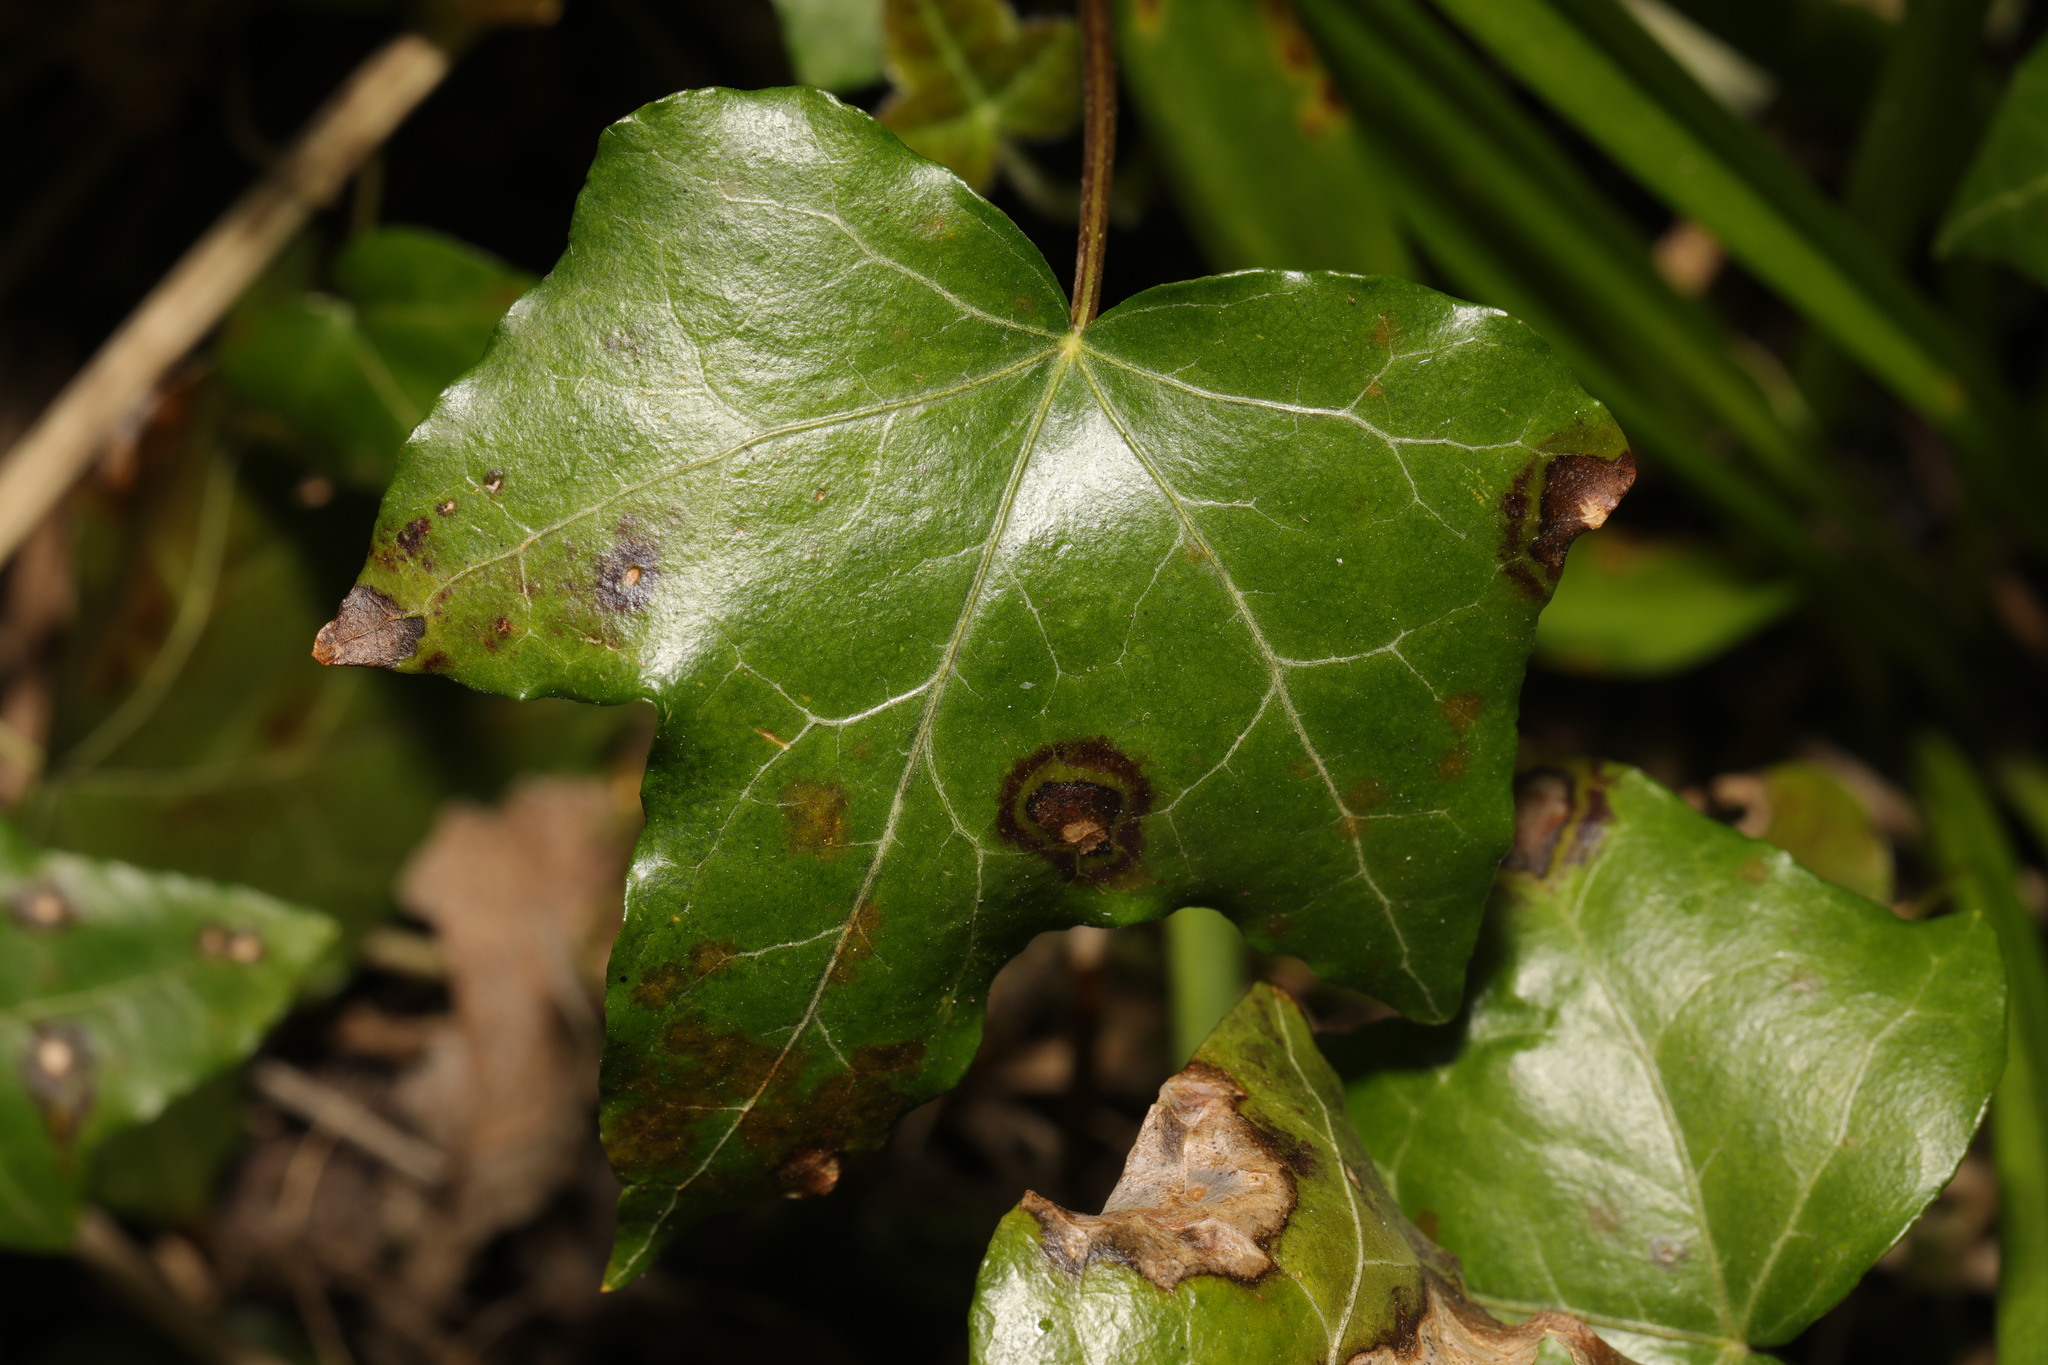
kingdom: Fungi
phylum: Ascomycota
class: Dothideomycetes
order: Pleosporales
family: Didymellaceae
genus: Boeremia
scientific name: Boeremia hedericola
